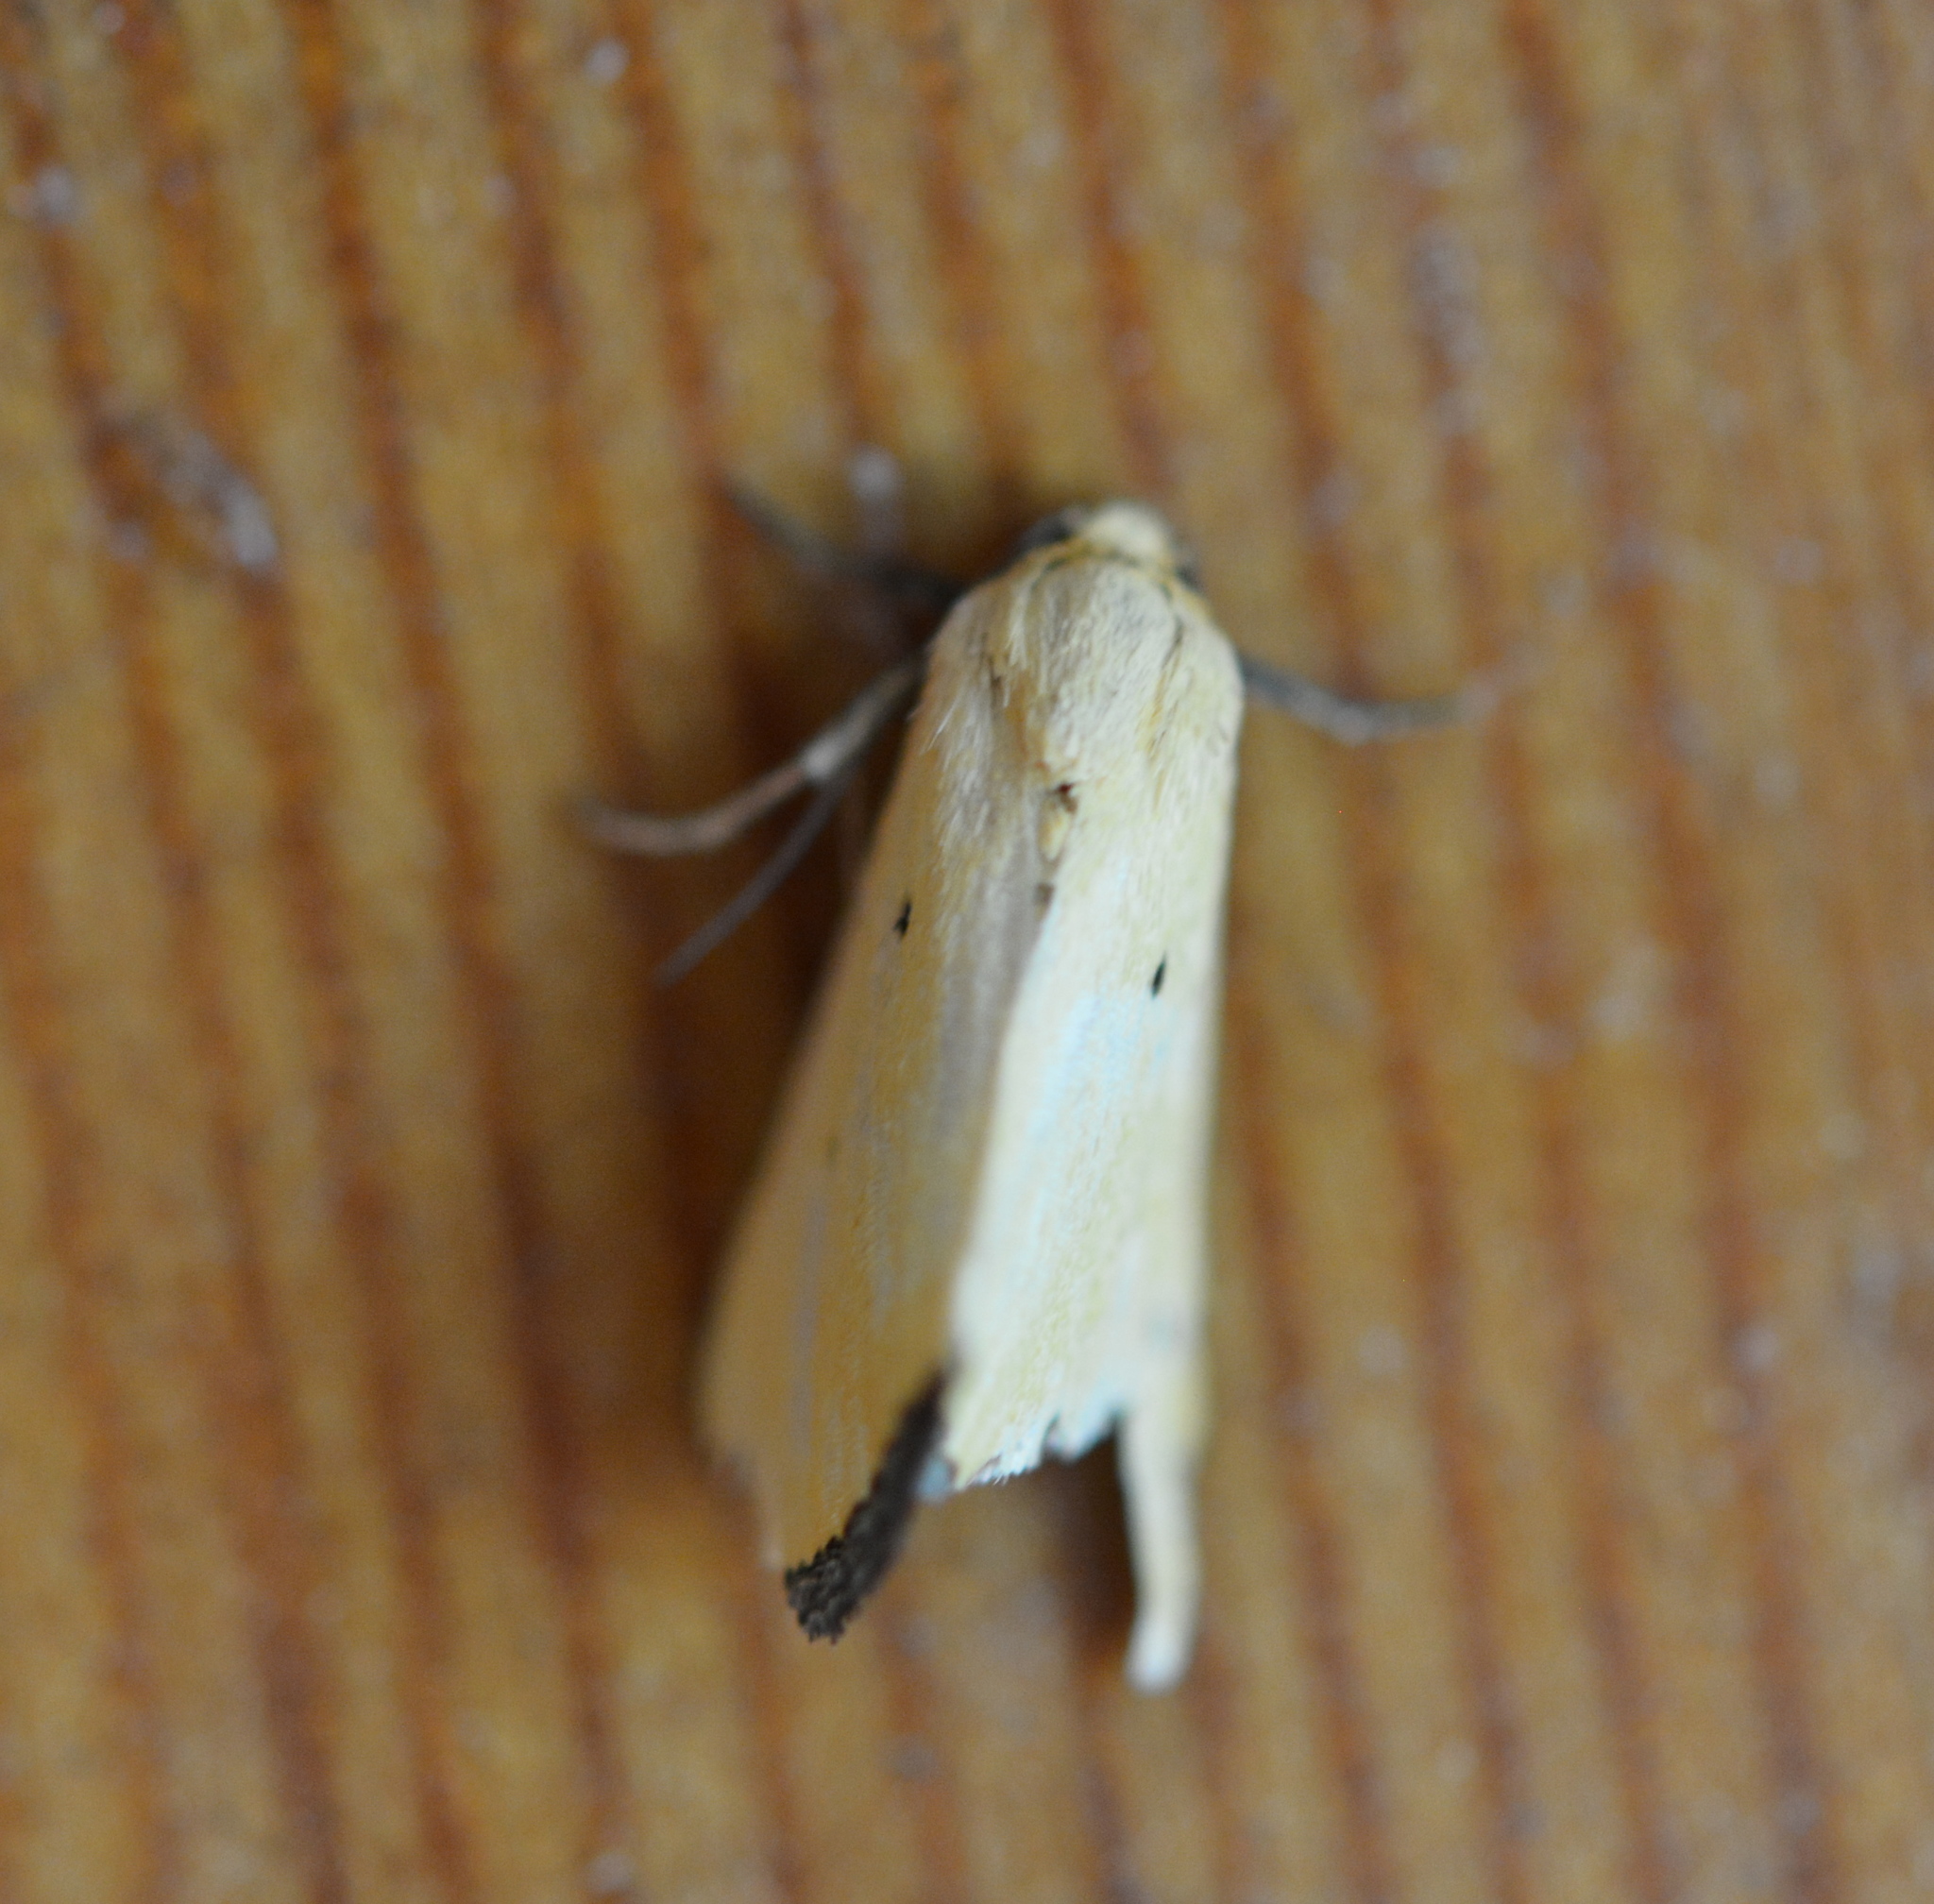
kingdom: Animalia
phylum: Arthropoda
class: Insecta
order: Lepidoptera
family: Noctuidae
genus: Marimatha
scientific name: Marimatha nigrofimbria
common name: Black-bordered lemon moth
